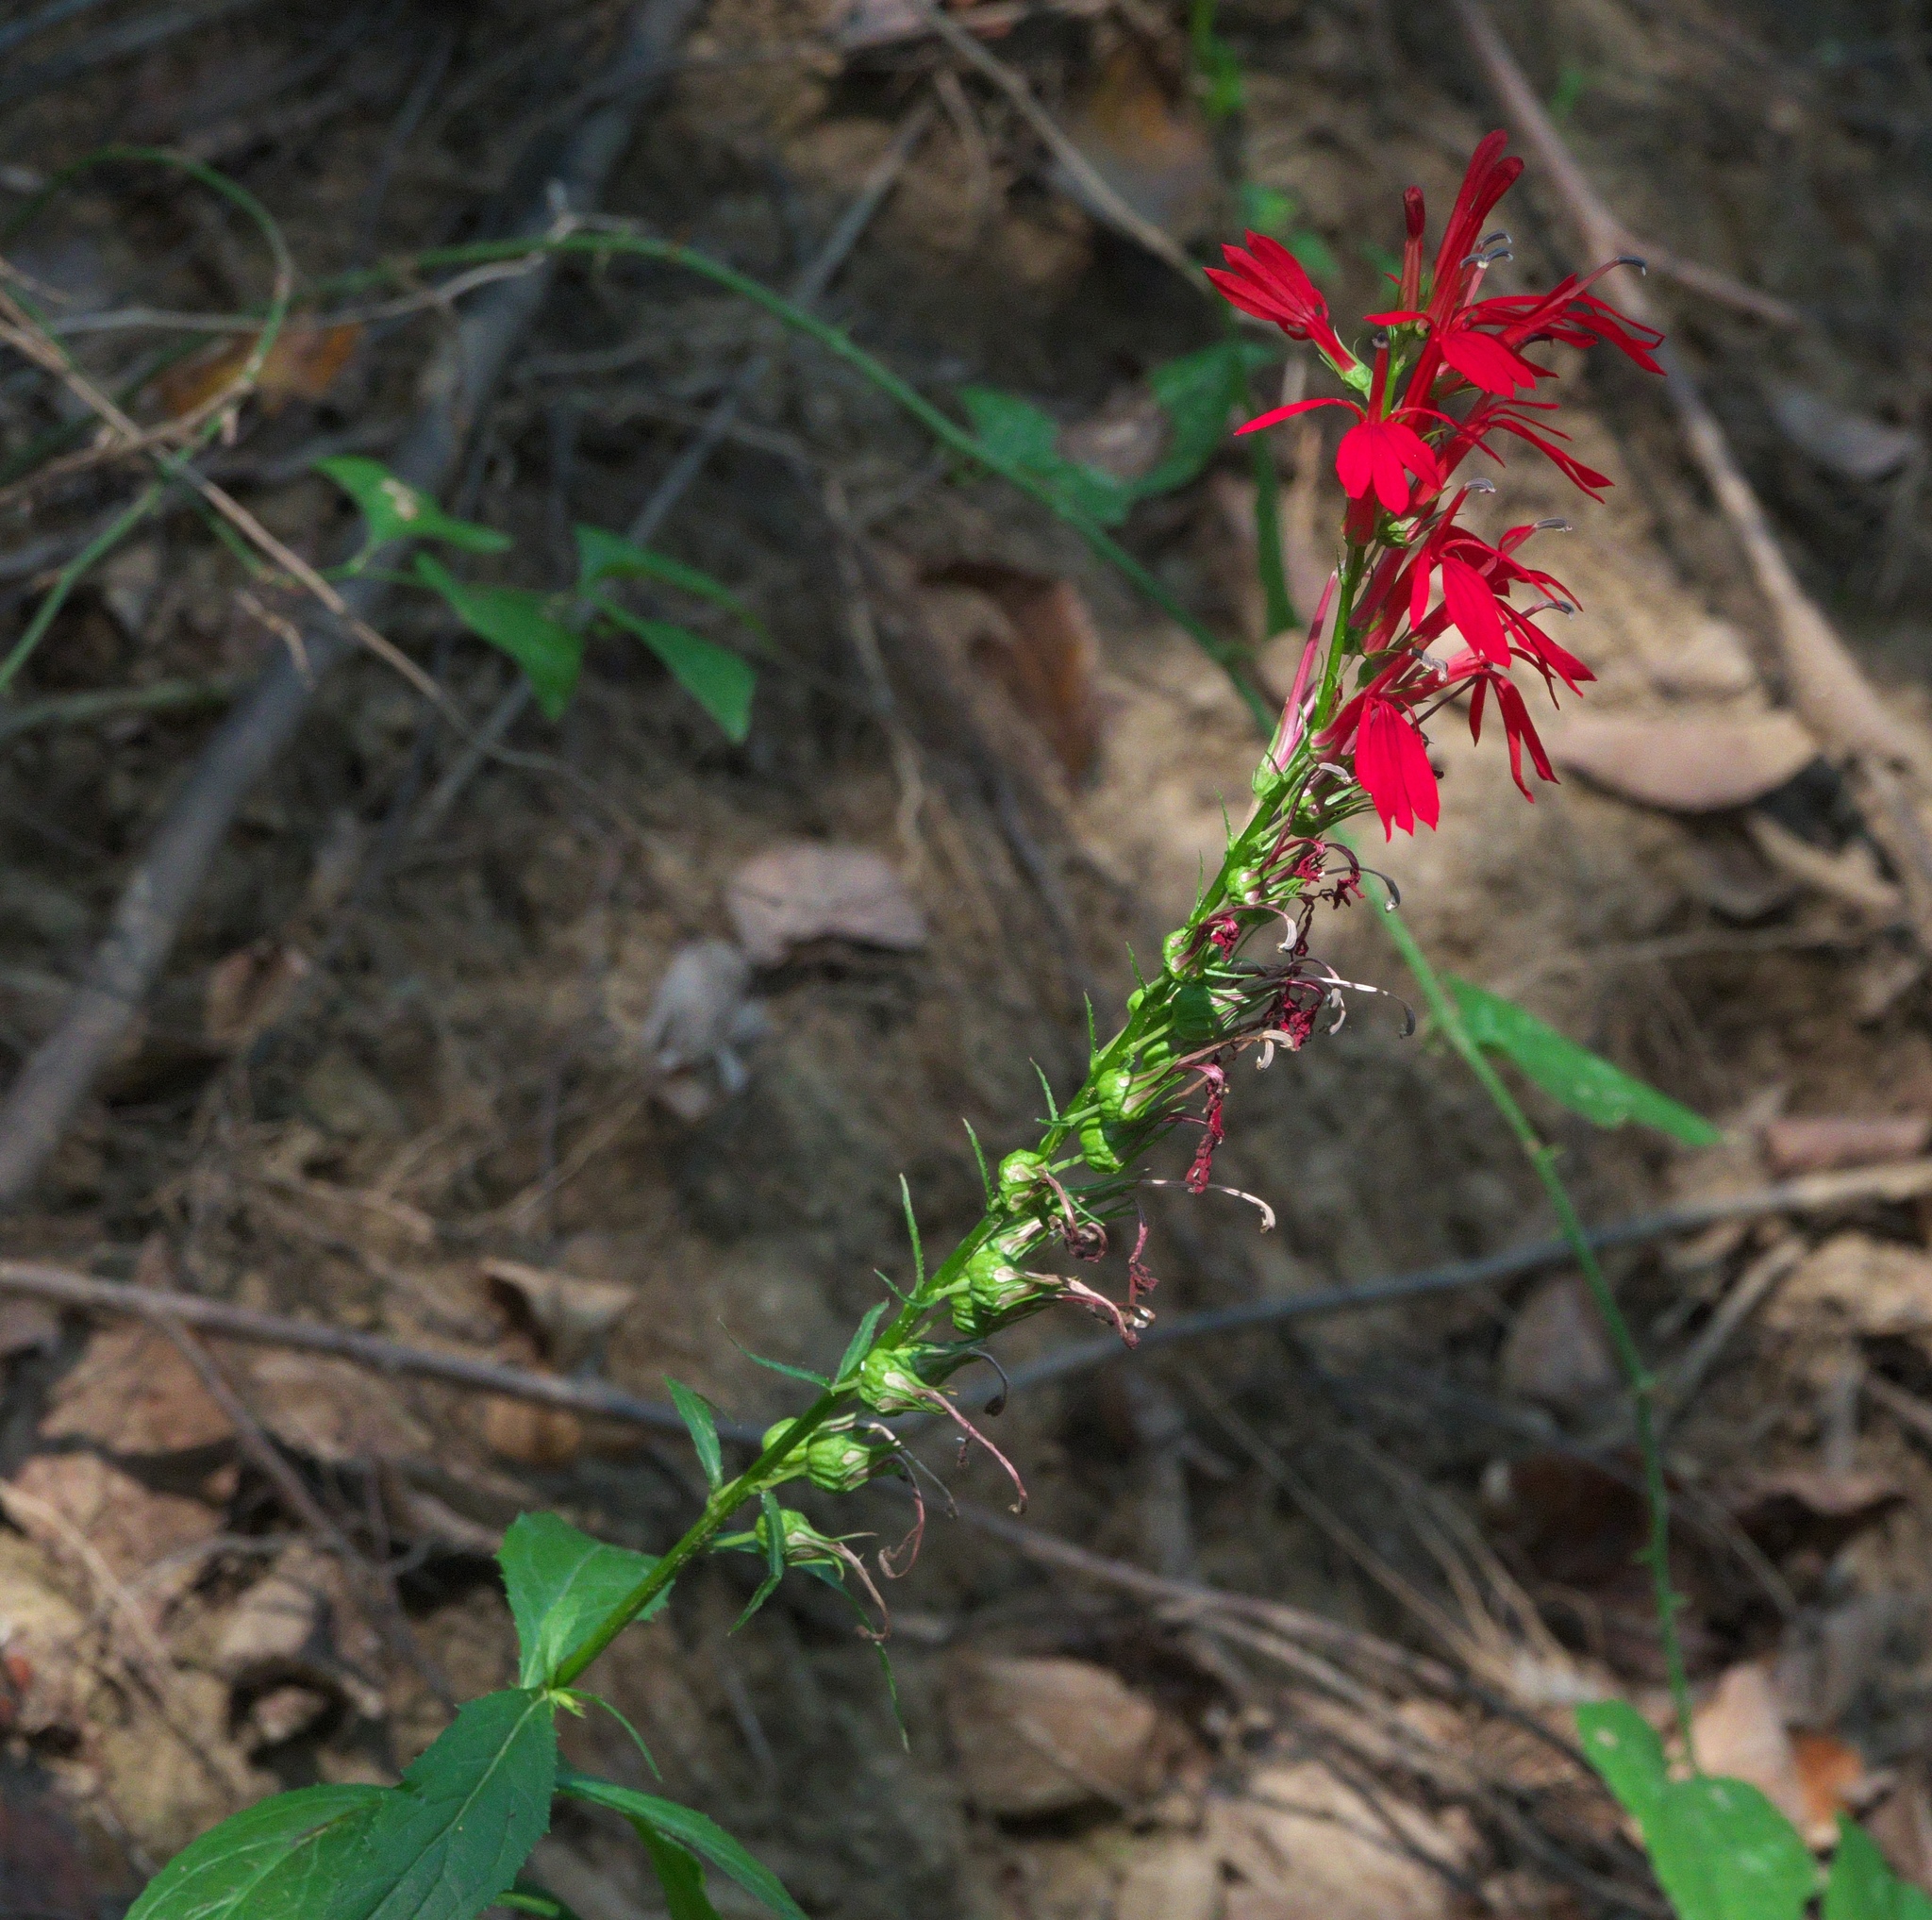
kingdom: Plantae
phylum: Tracheophyta
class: Magnoliopsida
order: Asterales
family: Campanulaceae
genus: Lobelia
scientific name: Lobelia cardinalis
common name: Cardinal flower
